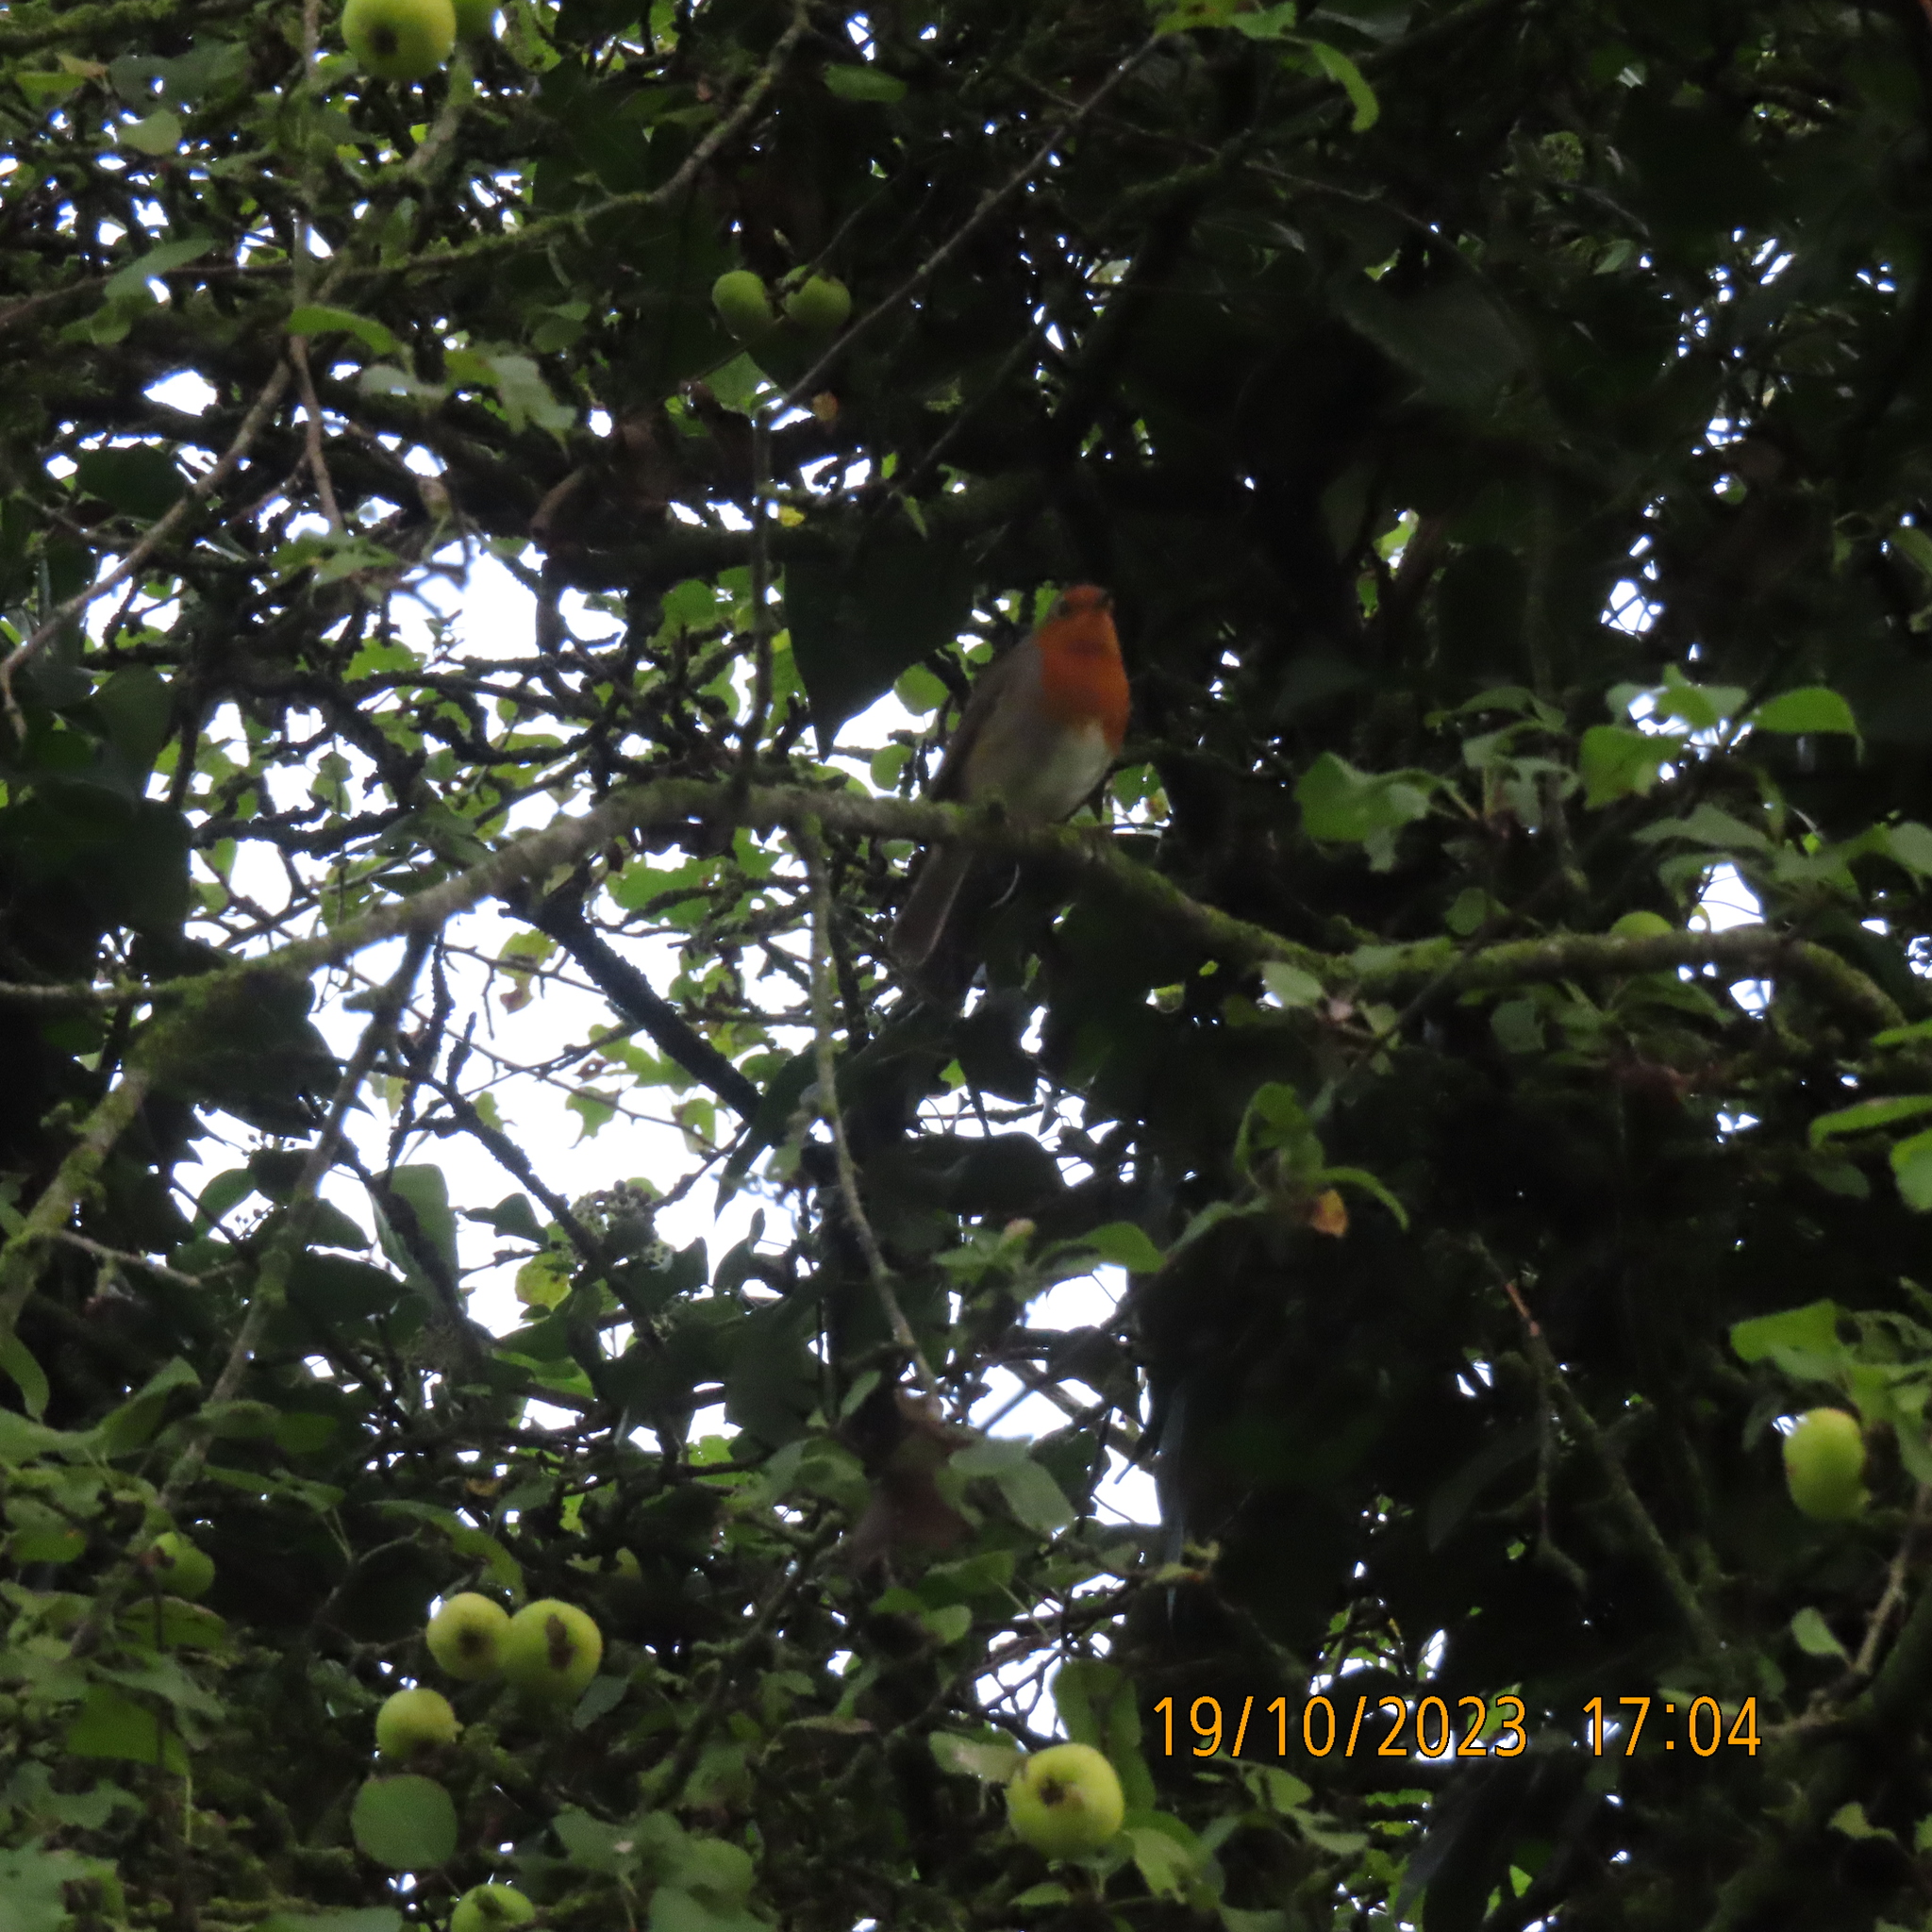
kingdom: Animalia
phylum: Chordata
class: Aves
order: Passeriformes
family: Muscicapidae
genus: Erithacus
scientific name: Erithacus rubecula
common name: European robin
